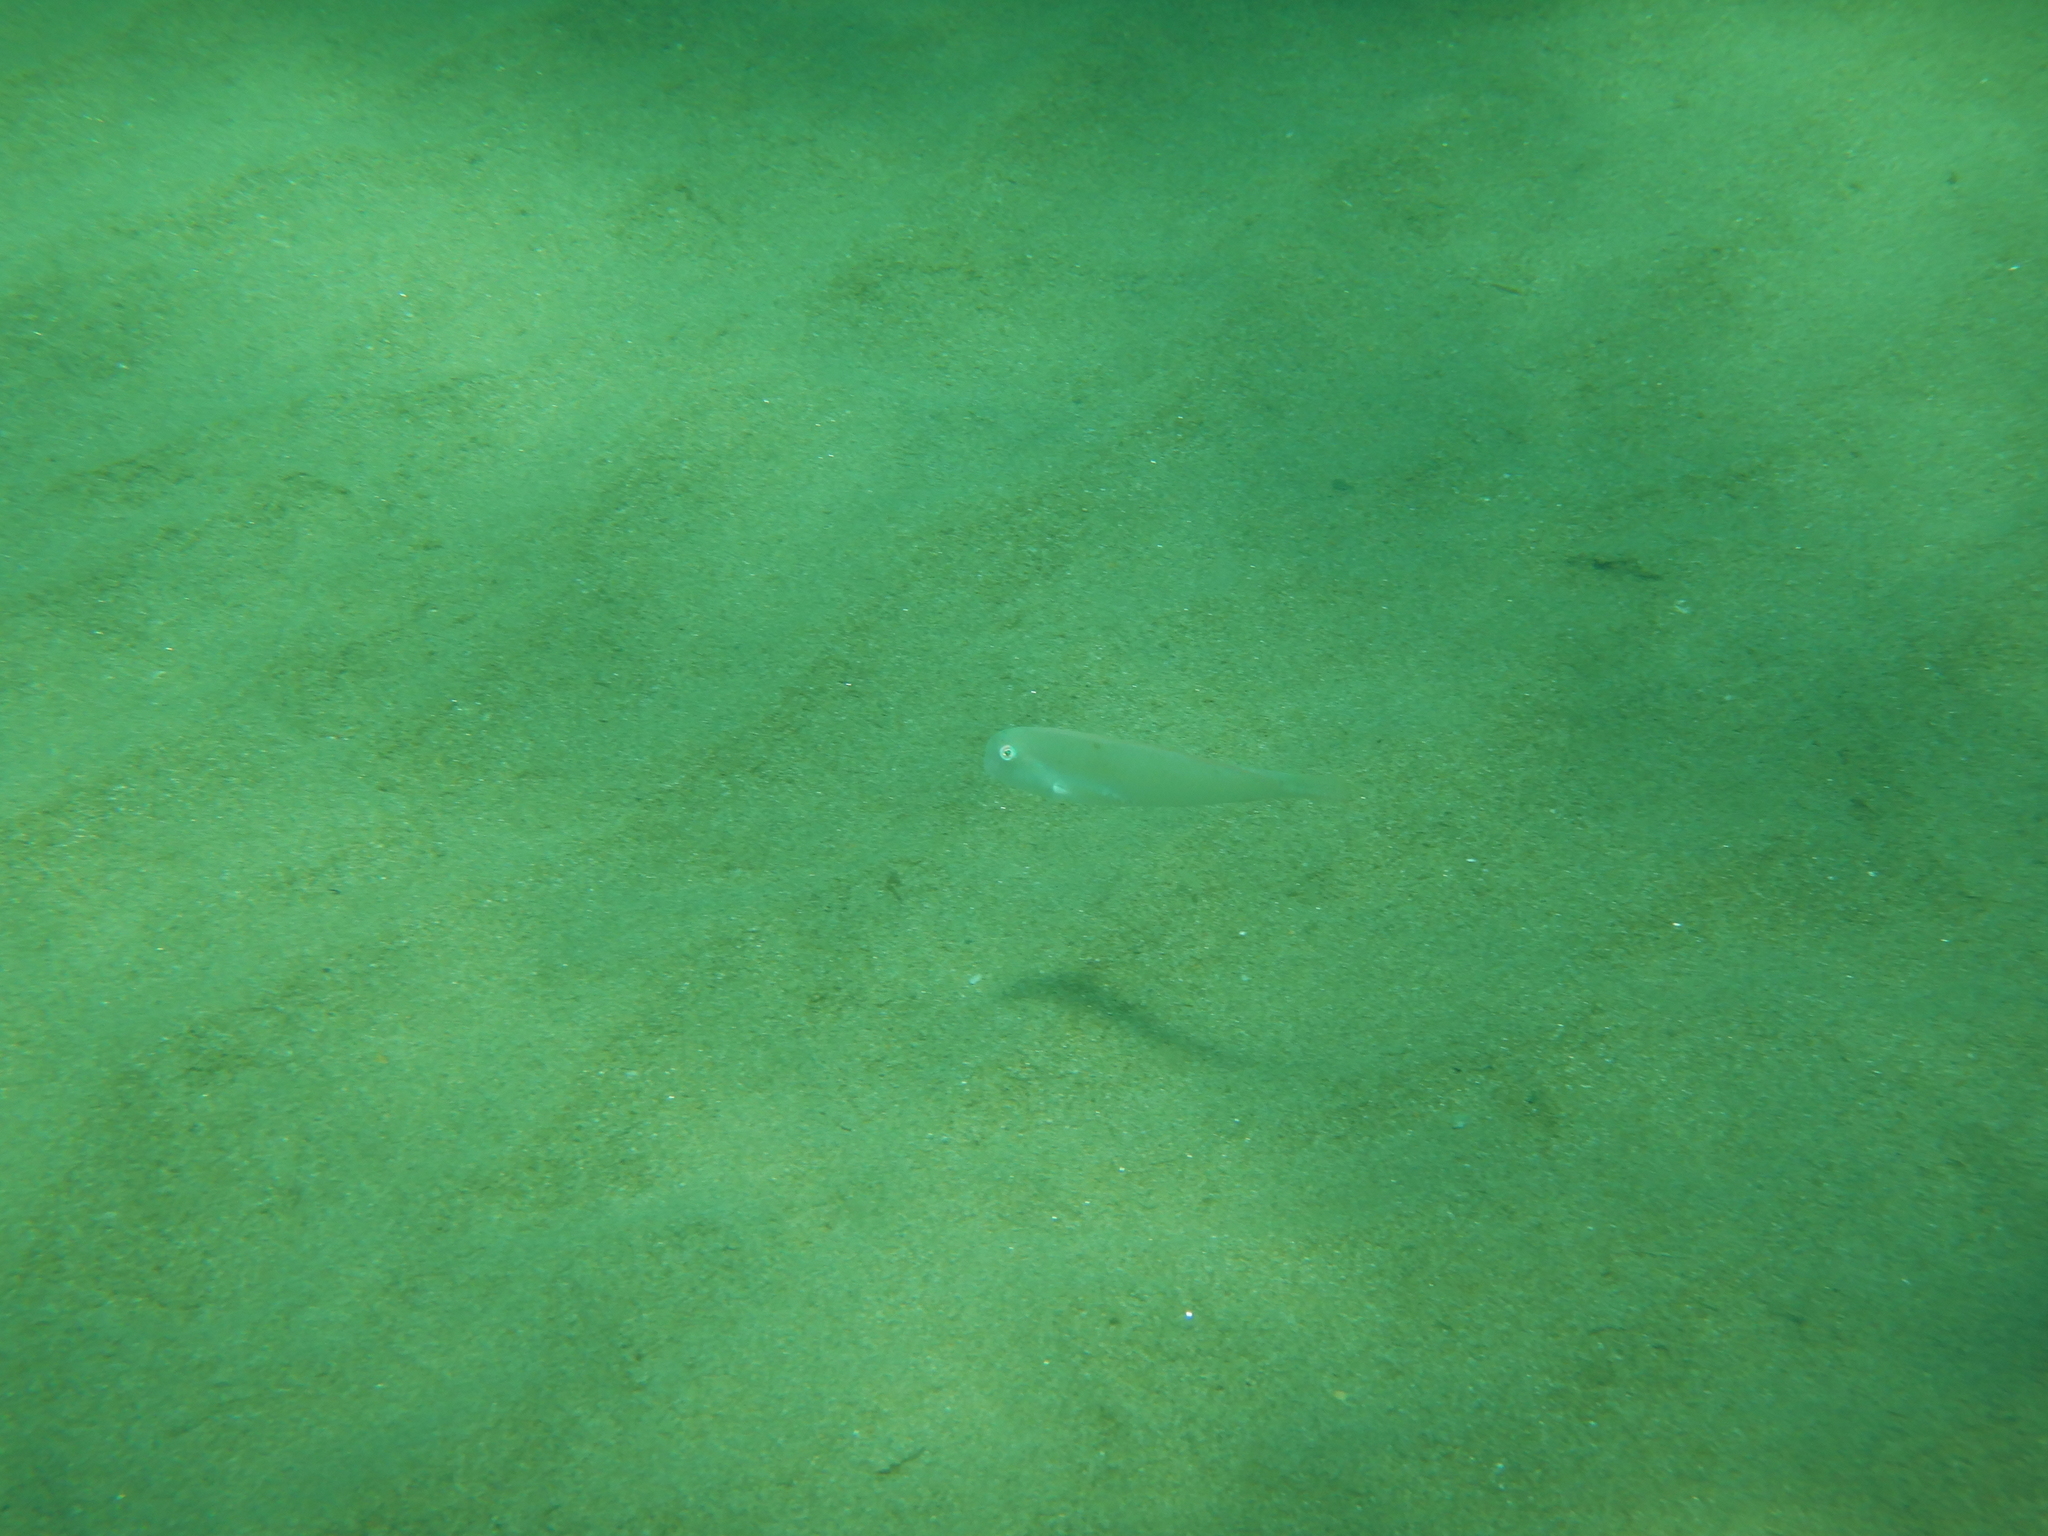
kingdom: Animalia
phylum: Chordata
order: Perciformes
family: Labridae
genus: Xyrichtys
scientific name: Xyrichtys novacula
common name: Pearly razorfish
